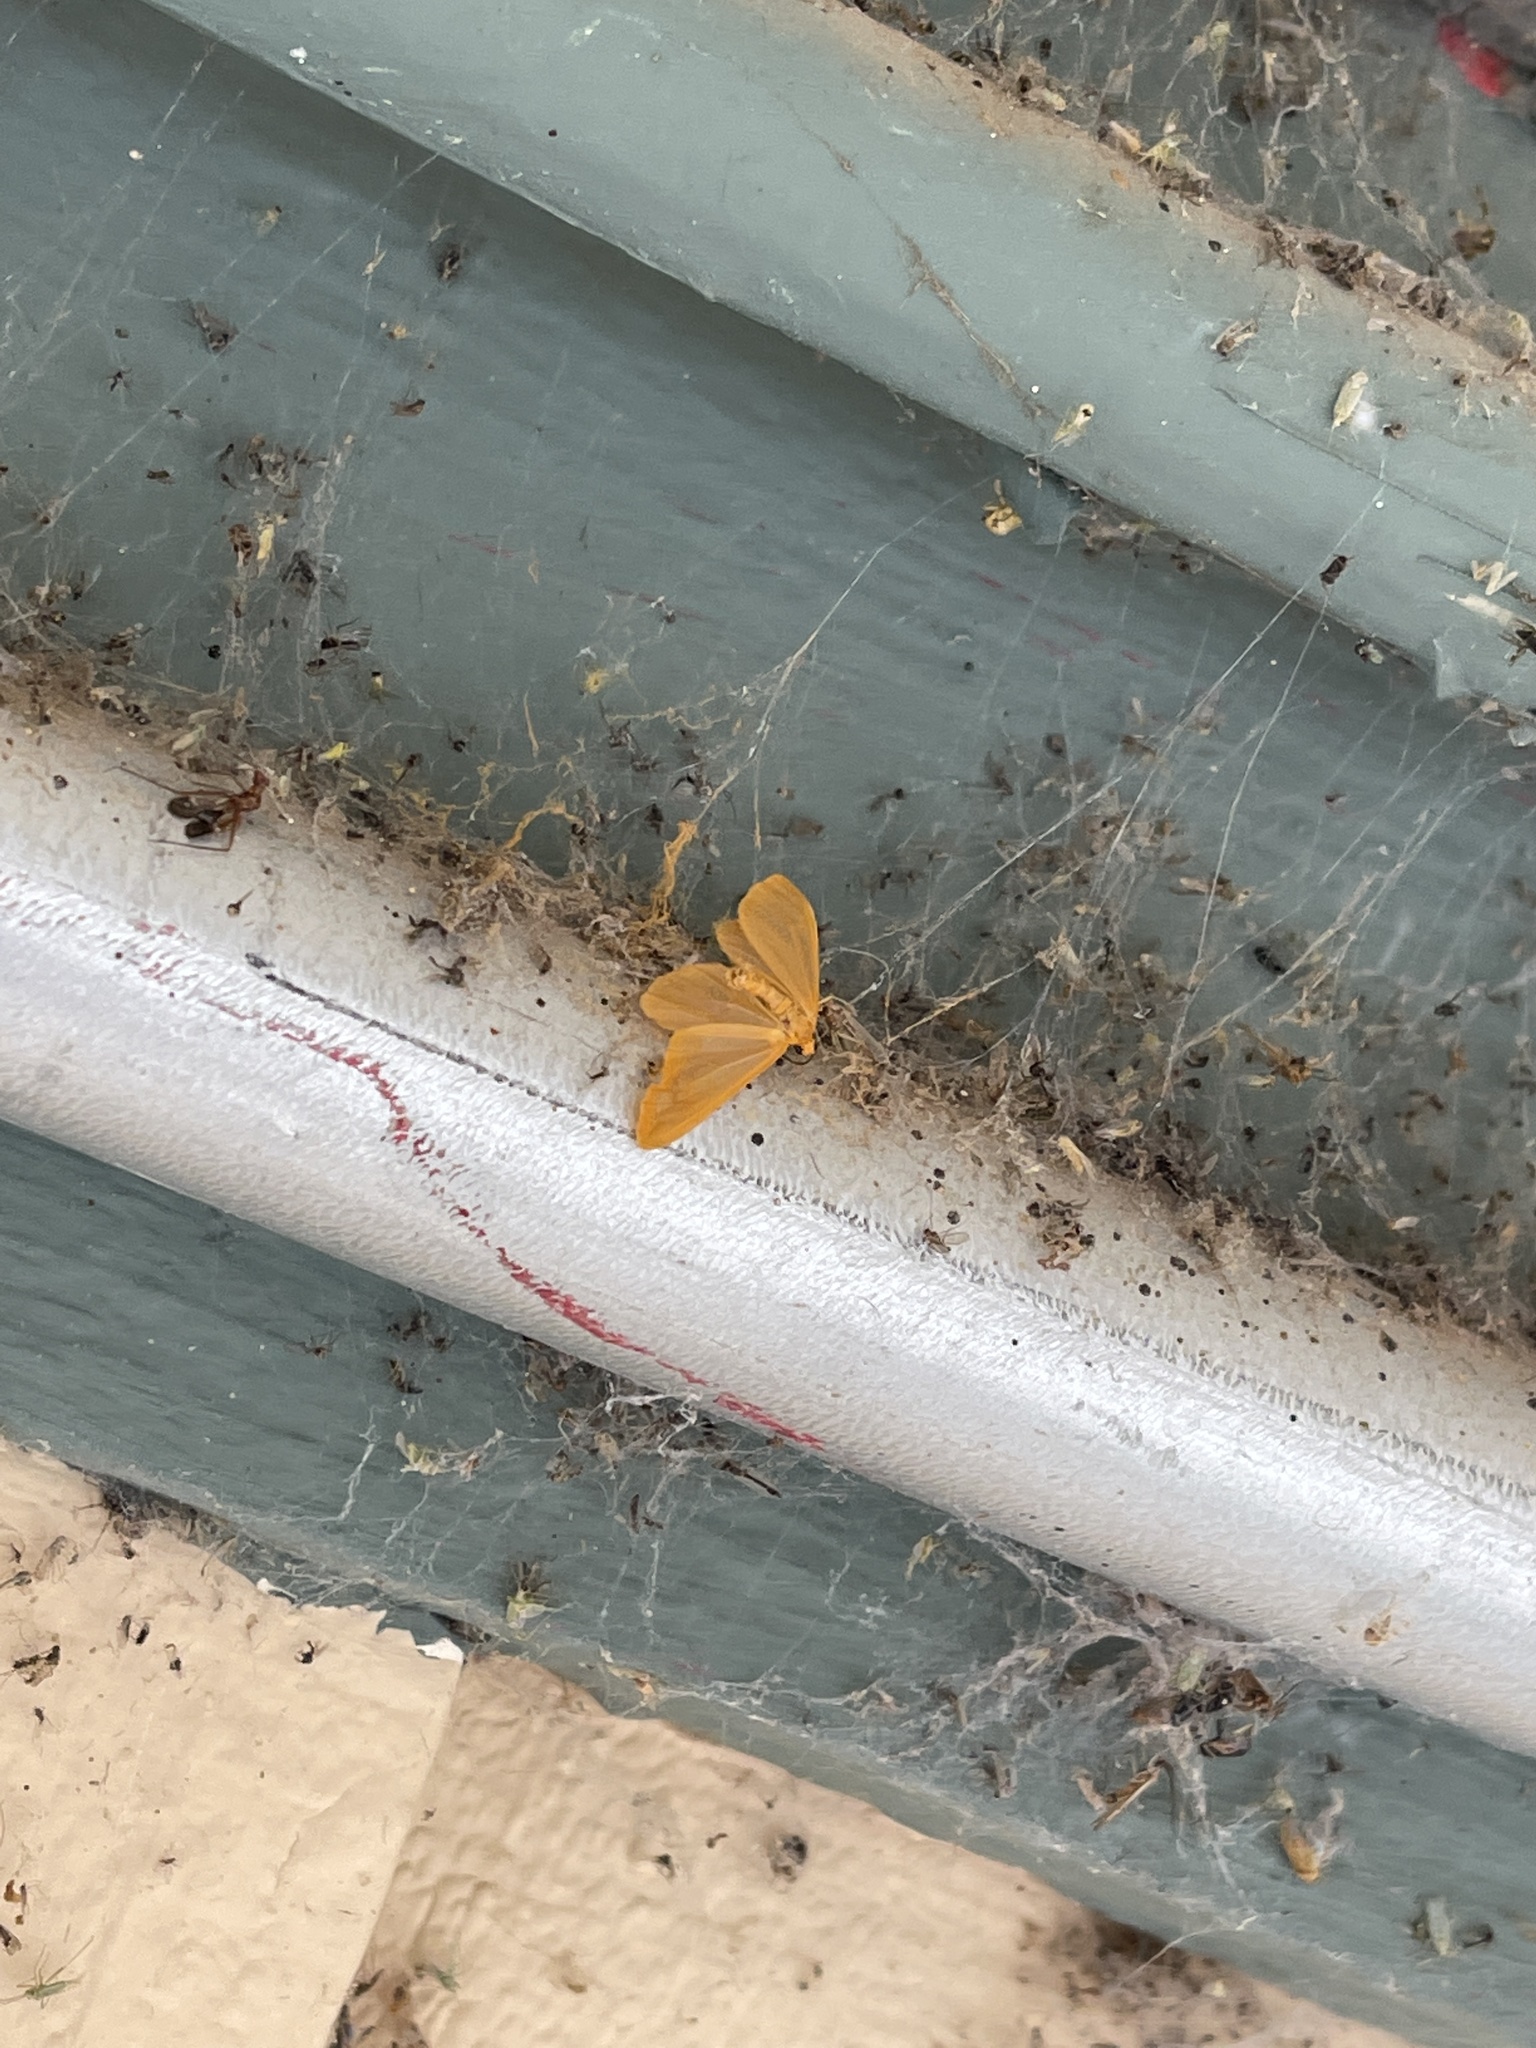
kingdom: Animalia
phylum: Arthropoda
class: Insecta
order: Lepidoptera
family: Geometridae
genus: Eubaphe
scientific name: Eubaphe unicolor
